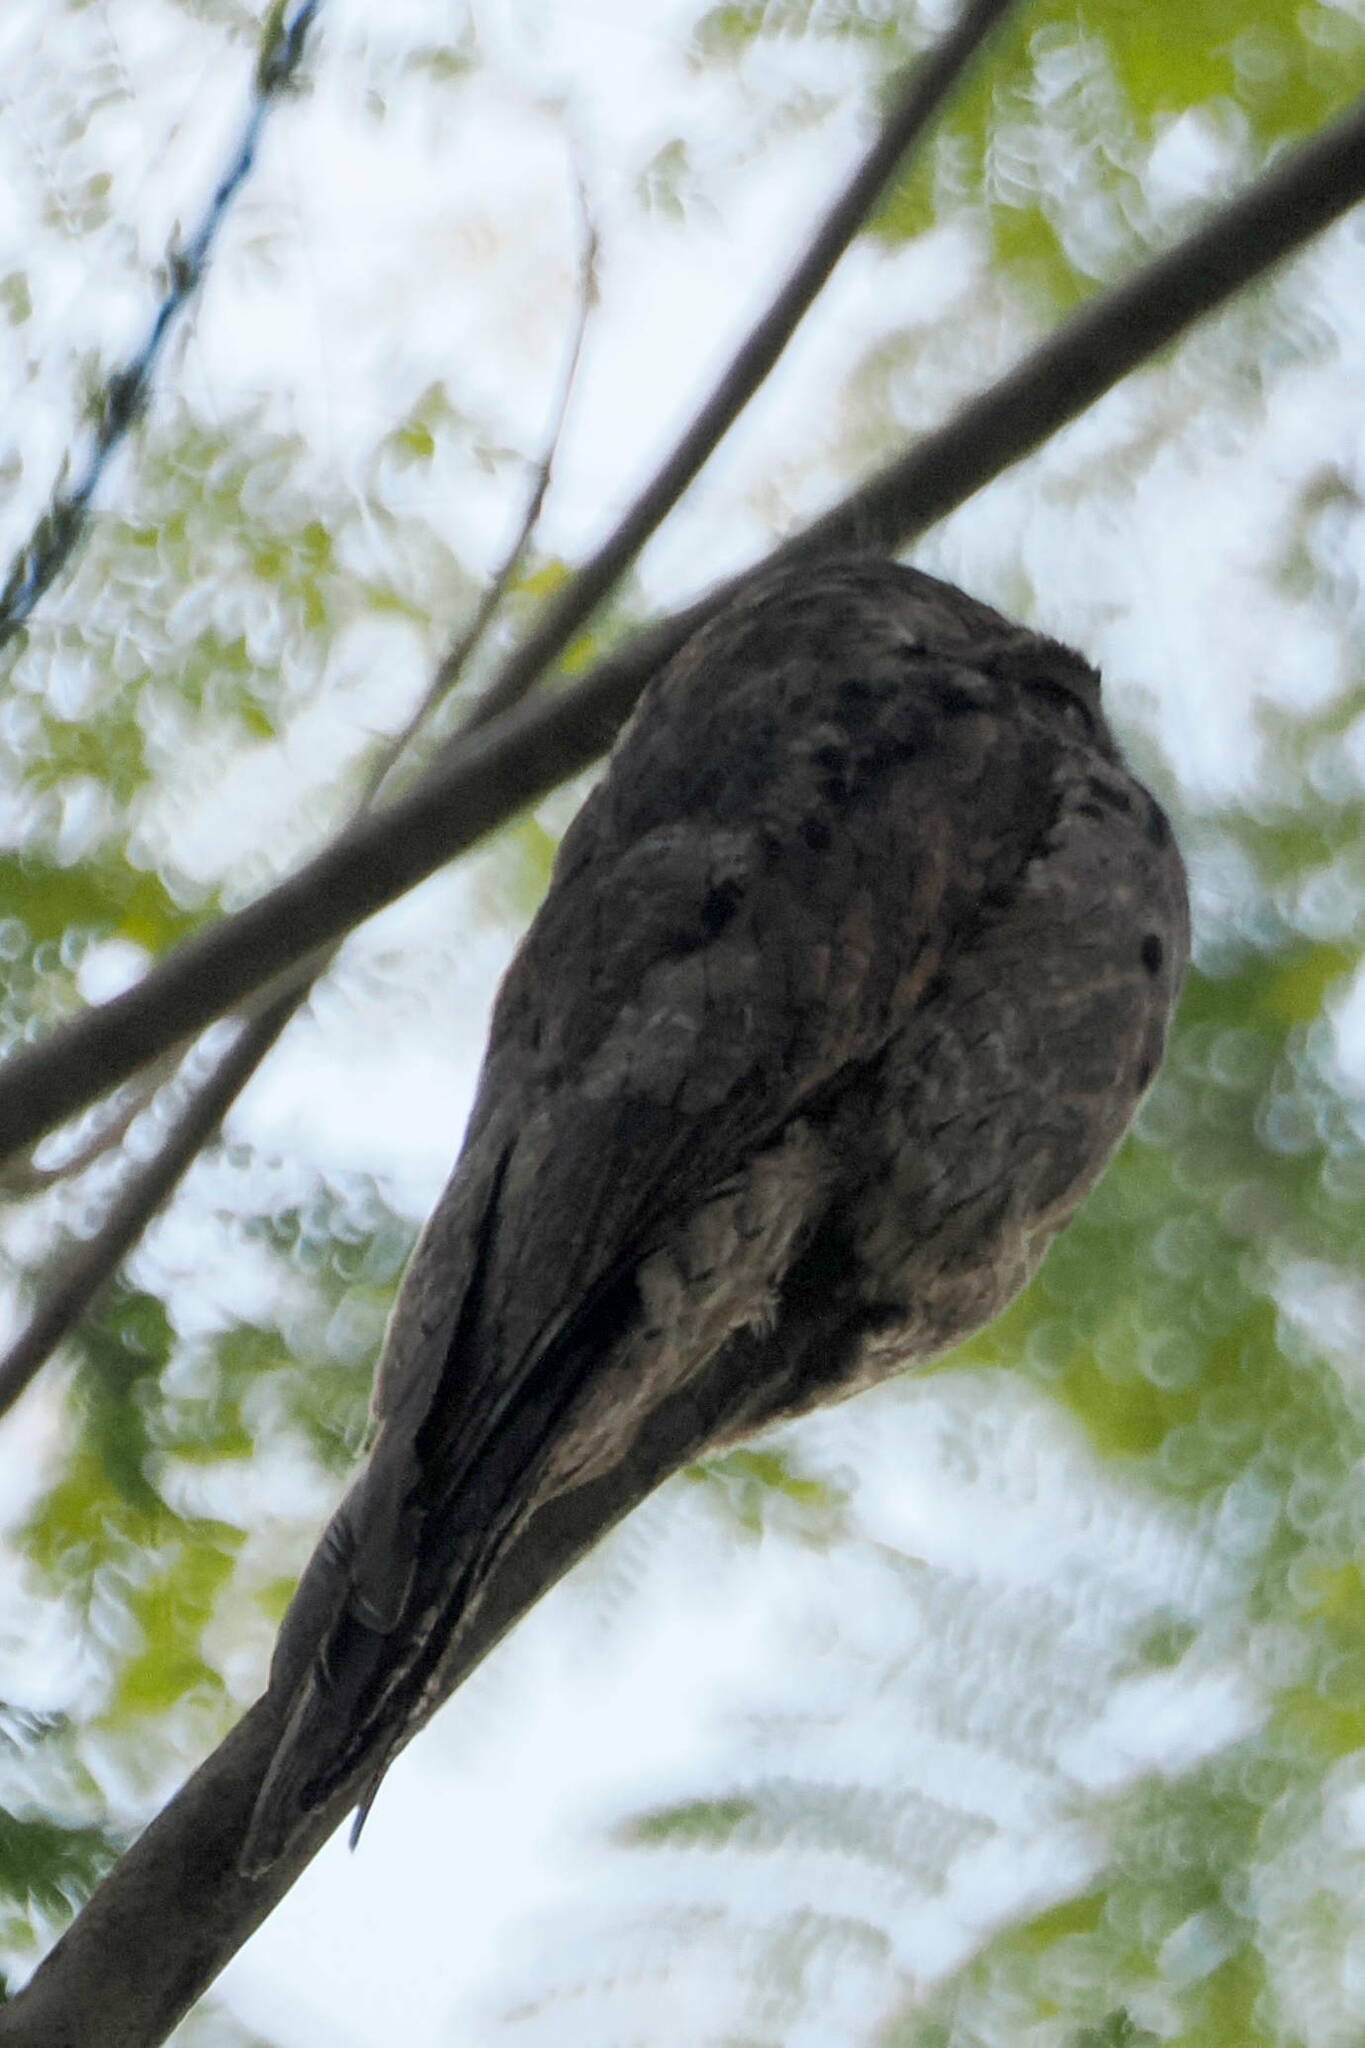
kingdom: Animalia
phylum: Chordata
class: Aves
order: Nyctibiiformes
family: Nyctibiidae
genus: Nyctibius
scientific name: Nyctibius griseus
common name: Common potoo
